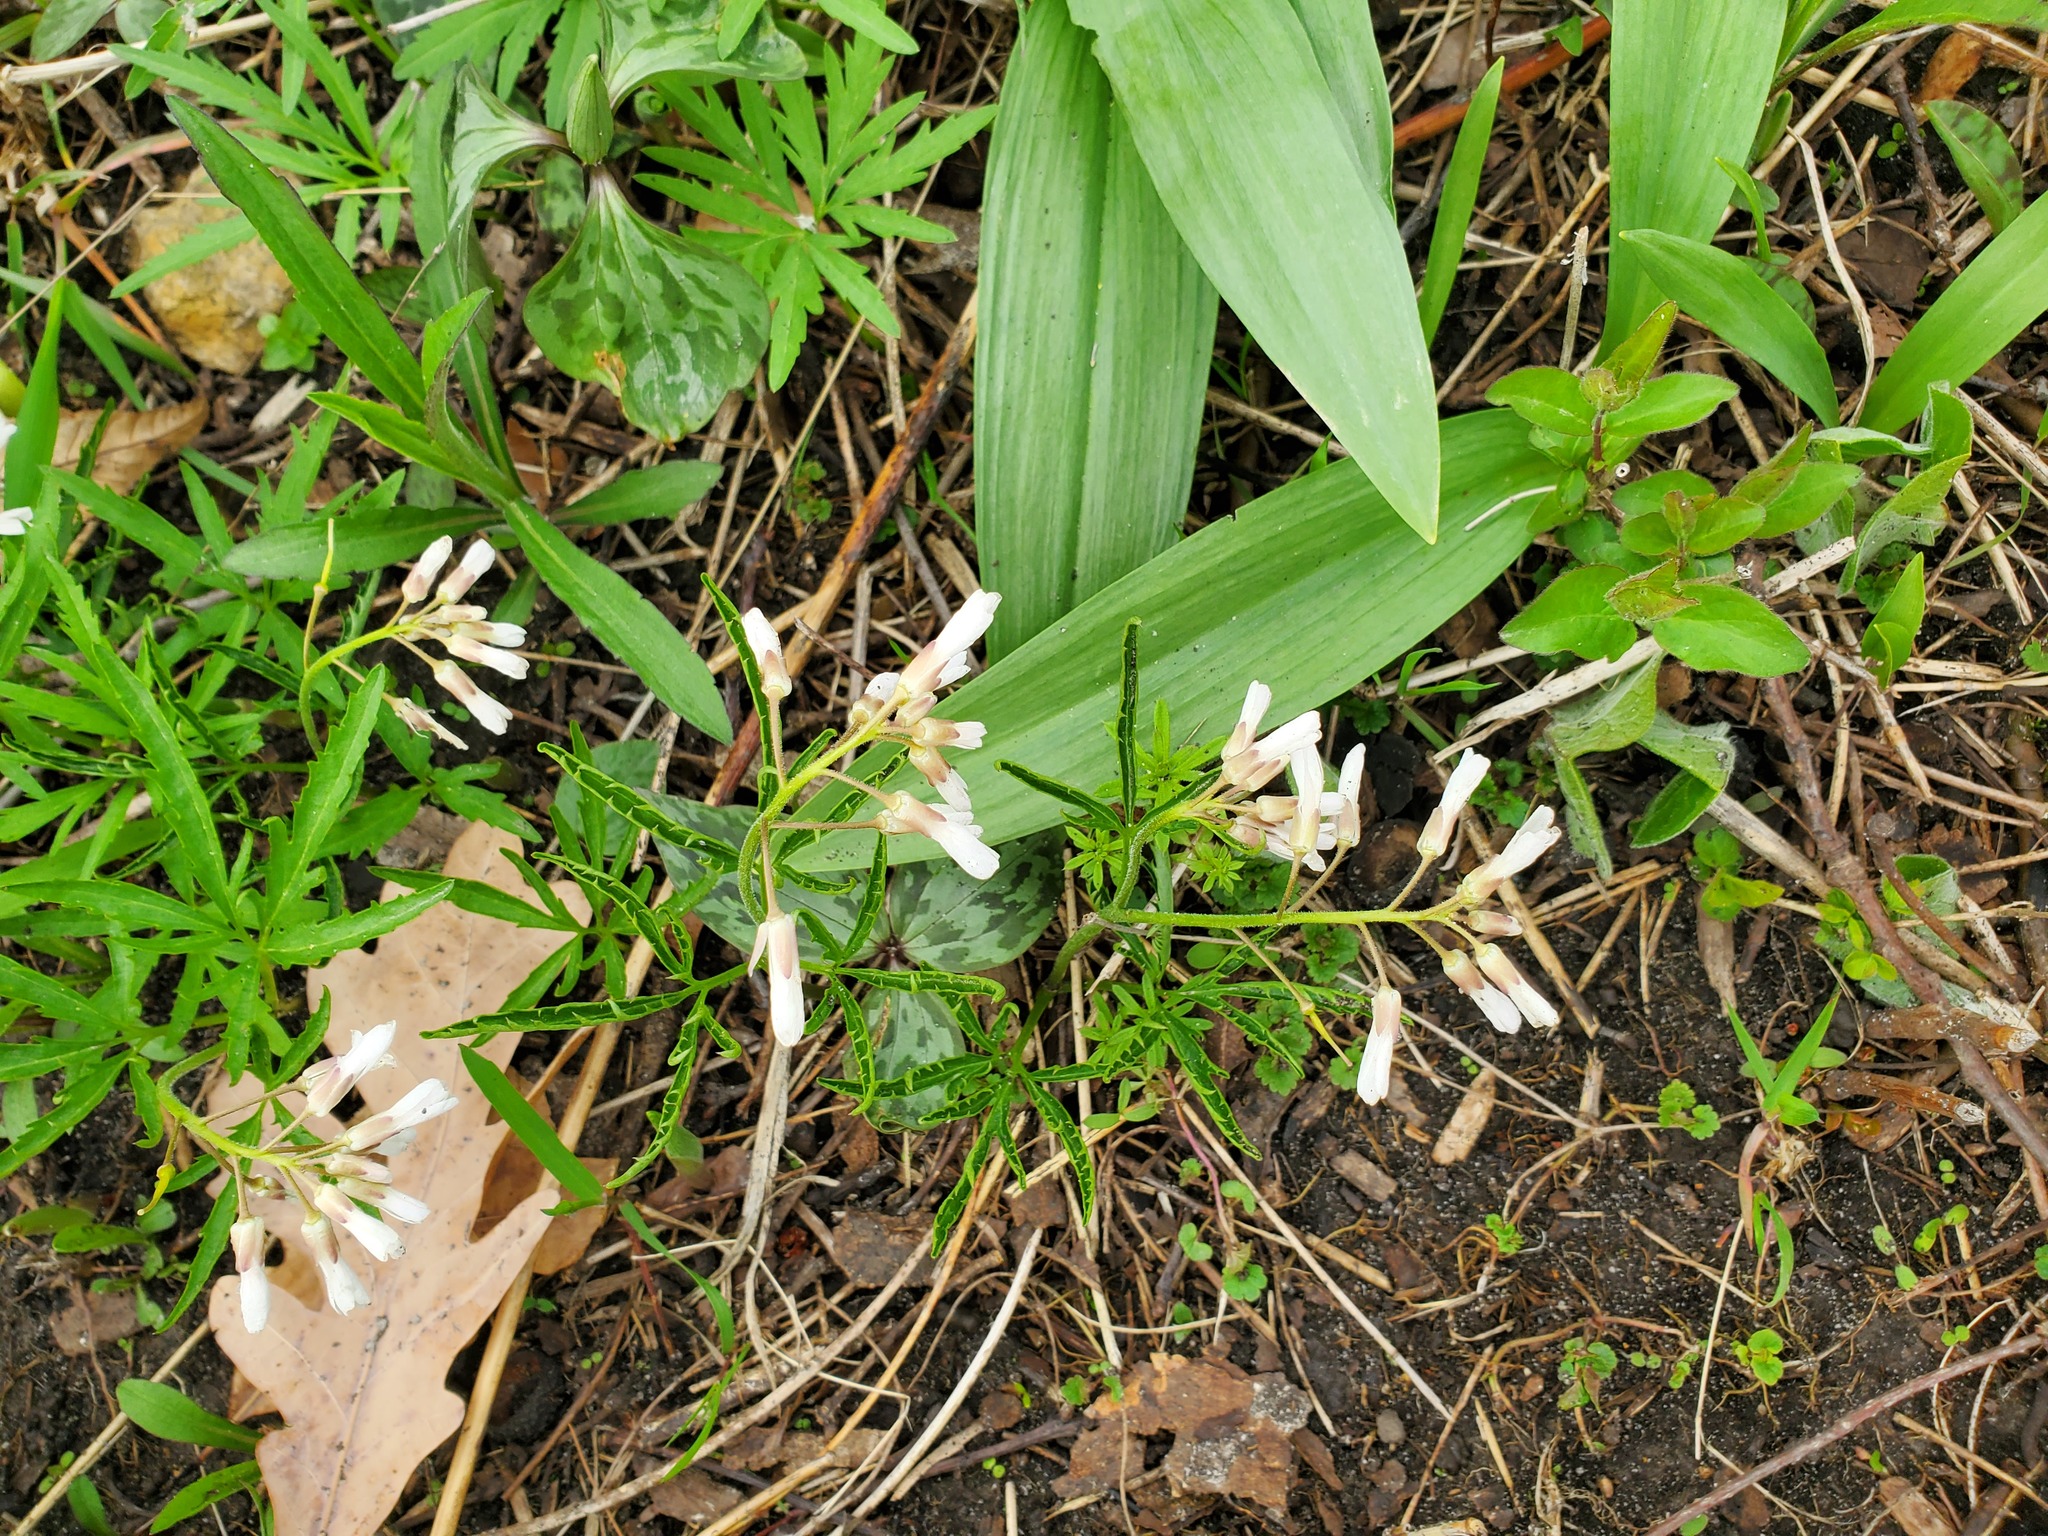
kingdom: Plantae
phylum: Tracheophyta
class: Magnoliopsida
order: Brassicales
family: Brassicaceae
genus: Cardamine
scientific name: Cardamine concatenata
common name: Cut-leaf toothcup
